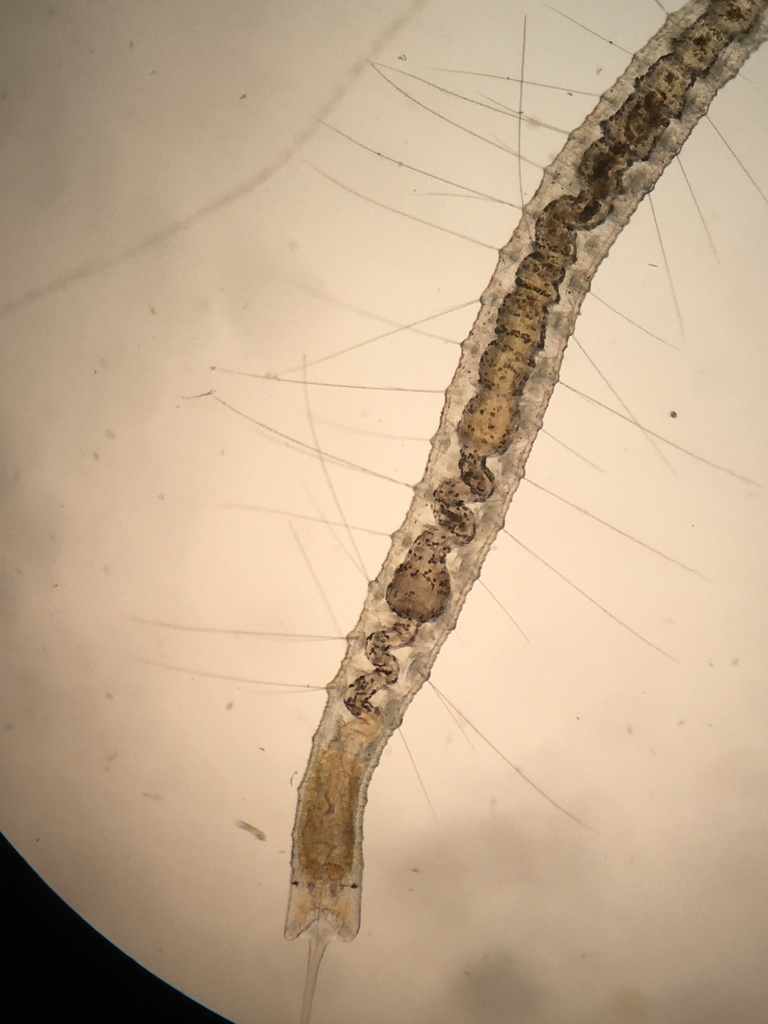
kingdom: Animalia
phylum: Annelida
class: Clitellata
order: Tubificida
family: Naididae
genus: Stylaria
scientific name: Stylaria lacustris
